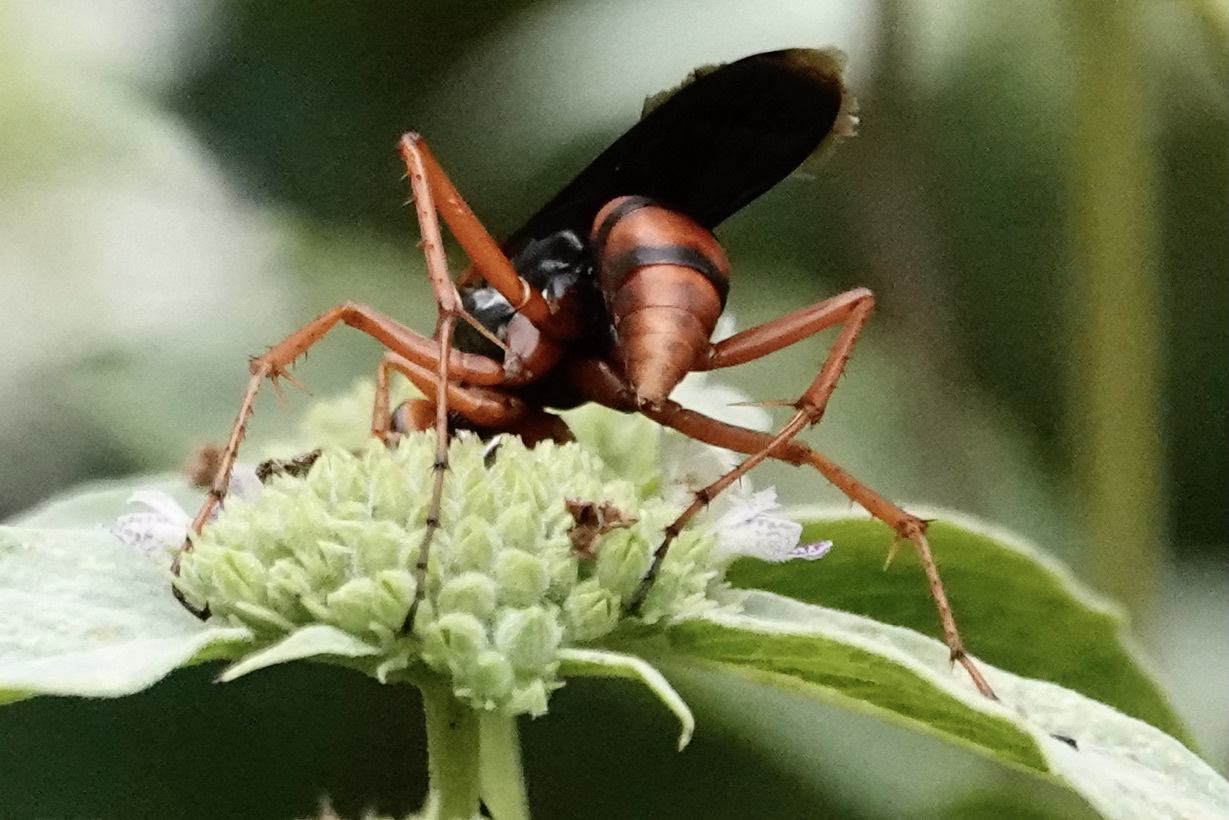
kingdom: Animalia
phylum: Arthropoda
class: Insecta
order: Hymenoptera
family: Pompilidae
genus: Tachypompilus
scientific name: Tachypompilus ferrugineus
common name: Rusty spider wasp
